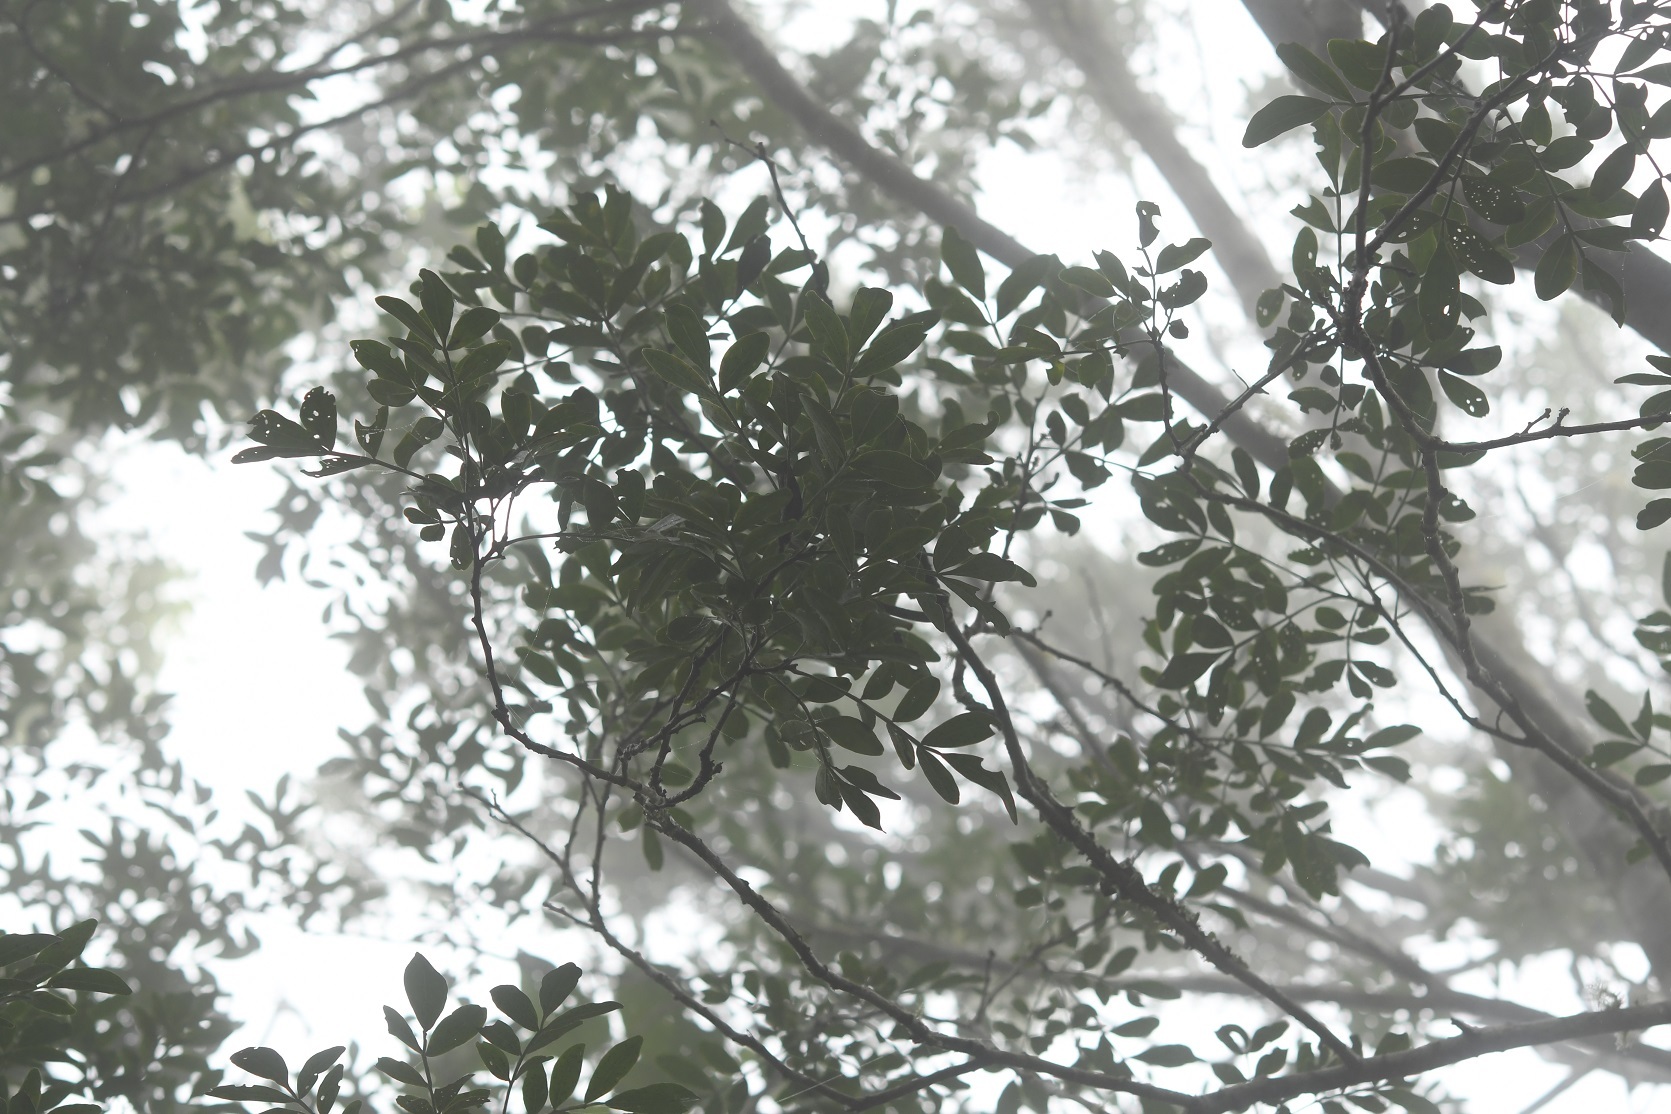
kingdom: Plantae
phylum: Tracheophyta
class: Magnoliopsida
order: Sapindales
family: Rutaceae
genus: Zanthoxylum
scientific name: Zanthoxylum quassiifolium
